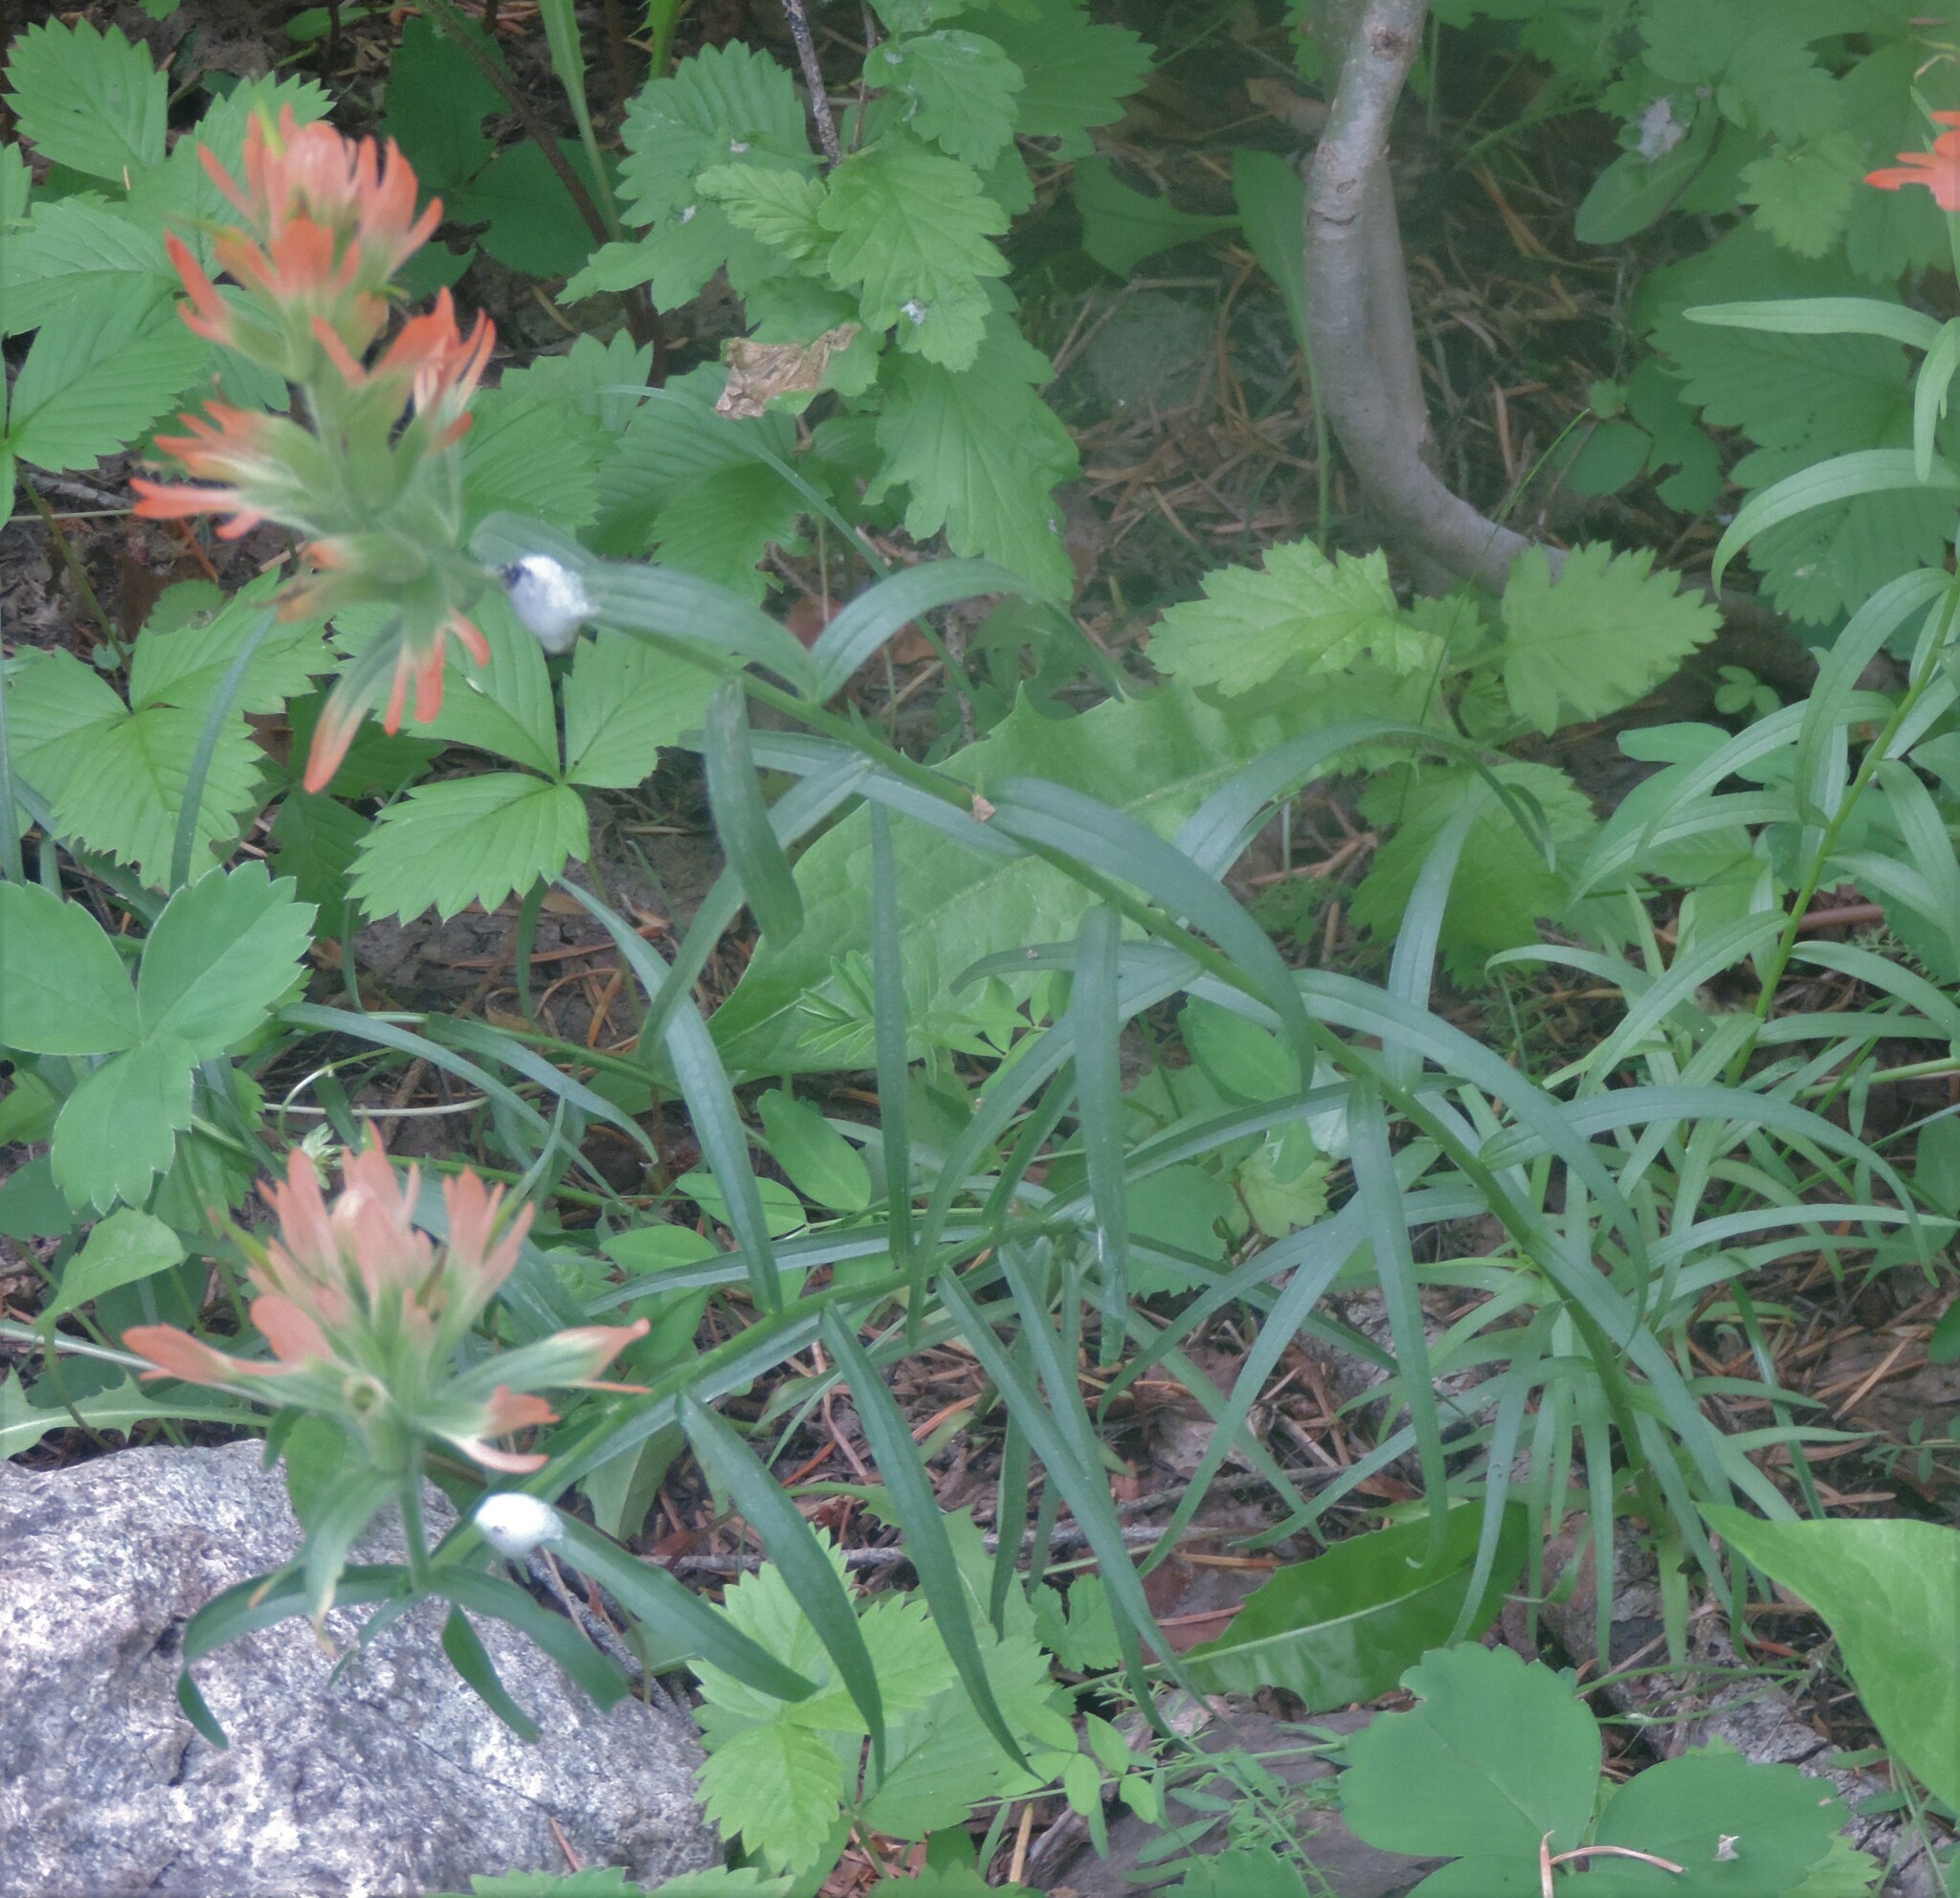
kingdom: Plantae
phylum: Tracheophyta
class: Magnoliopsida
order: Lamiales
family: Orobanchaceae
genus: Castilleja
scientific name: Castilleja miniata
